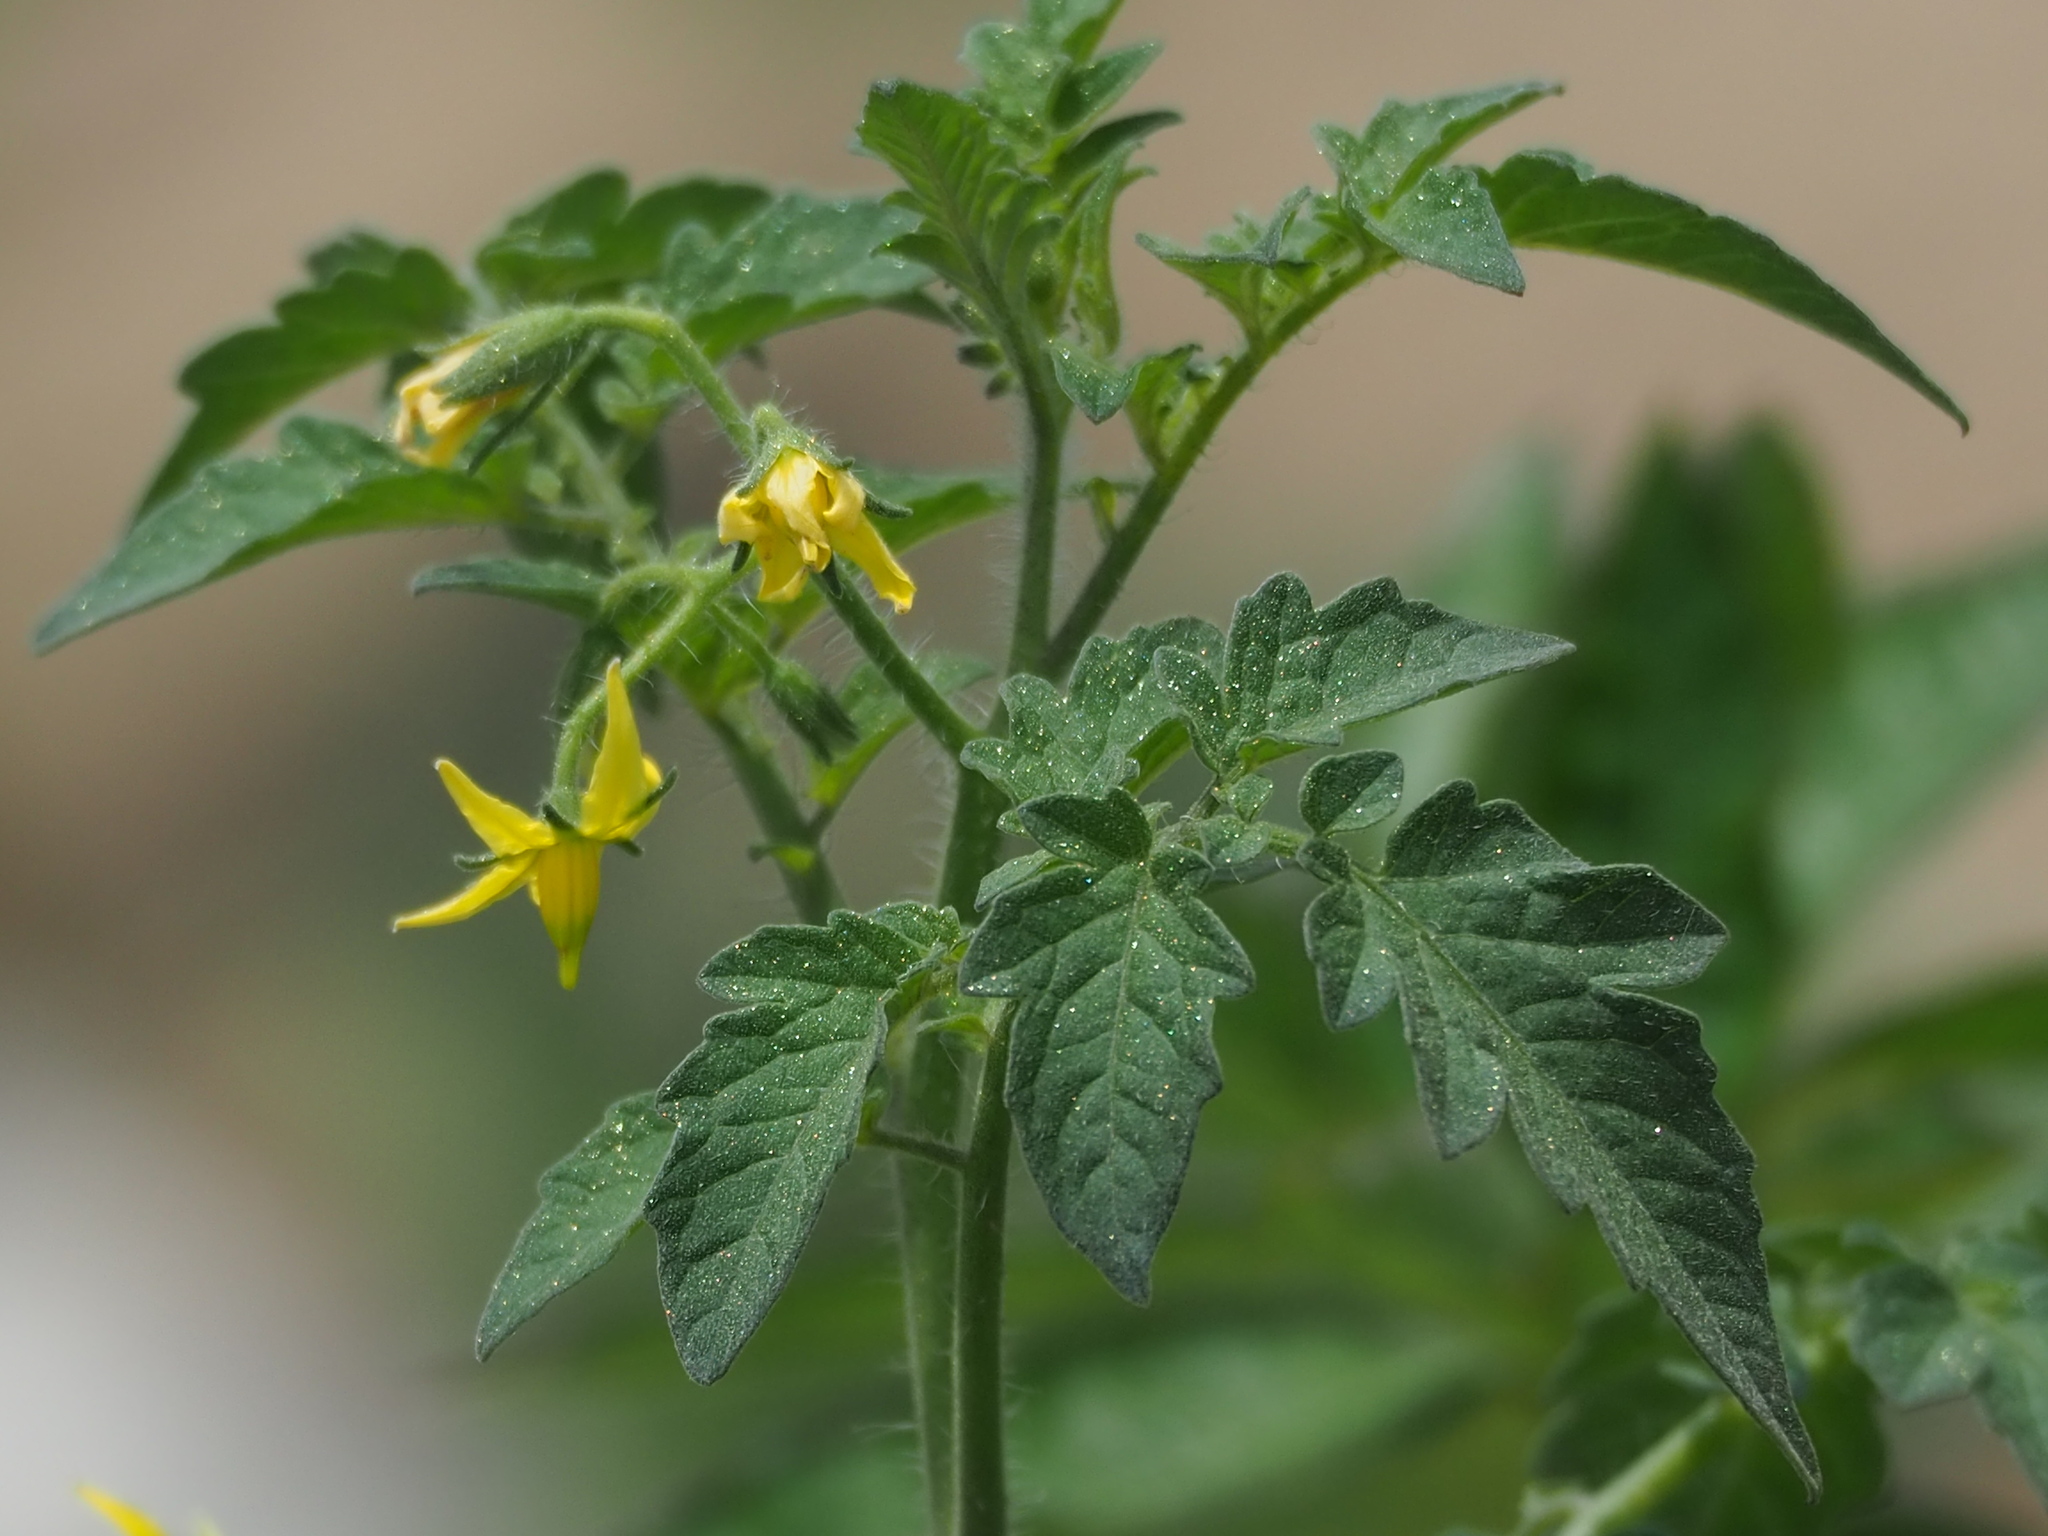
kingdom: Plantae
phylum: Tracheophyta
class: Magnoliopsida
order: Solanales
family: Solanaceae
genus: Solanum
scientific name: Solanum lycopersicum
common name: Garden tomato
